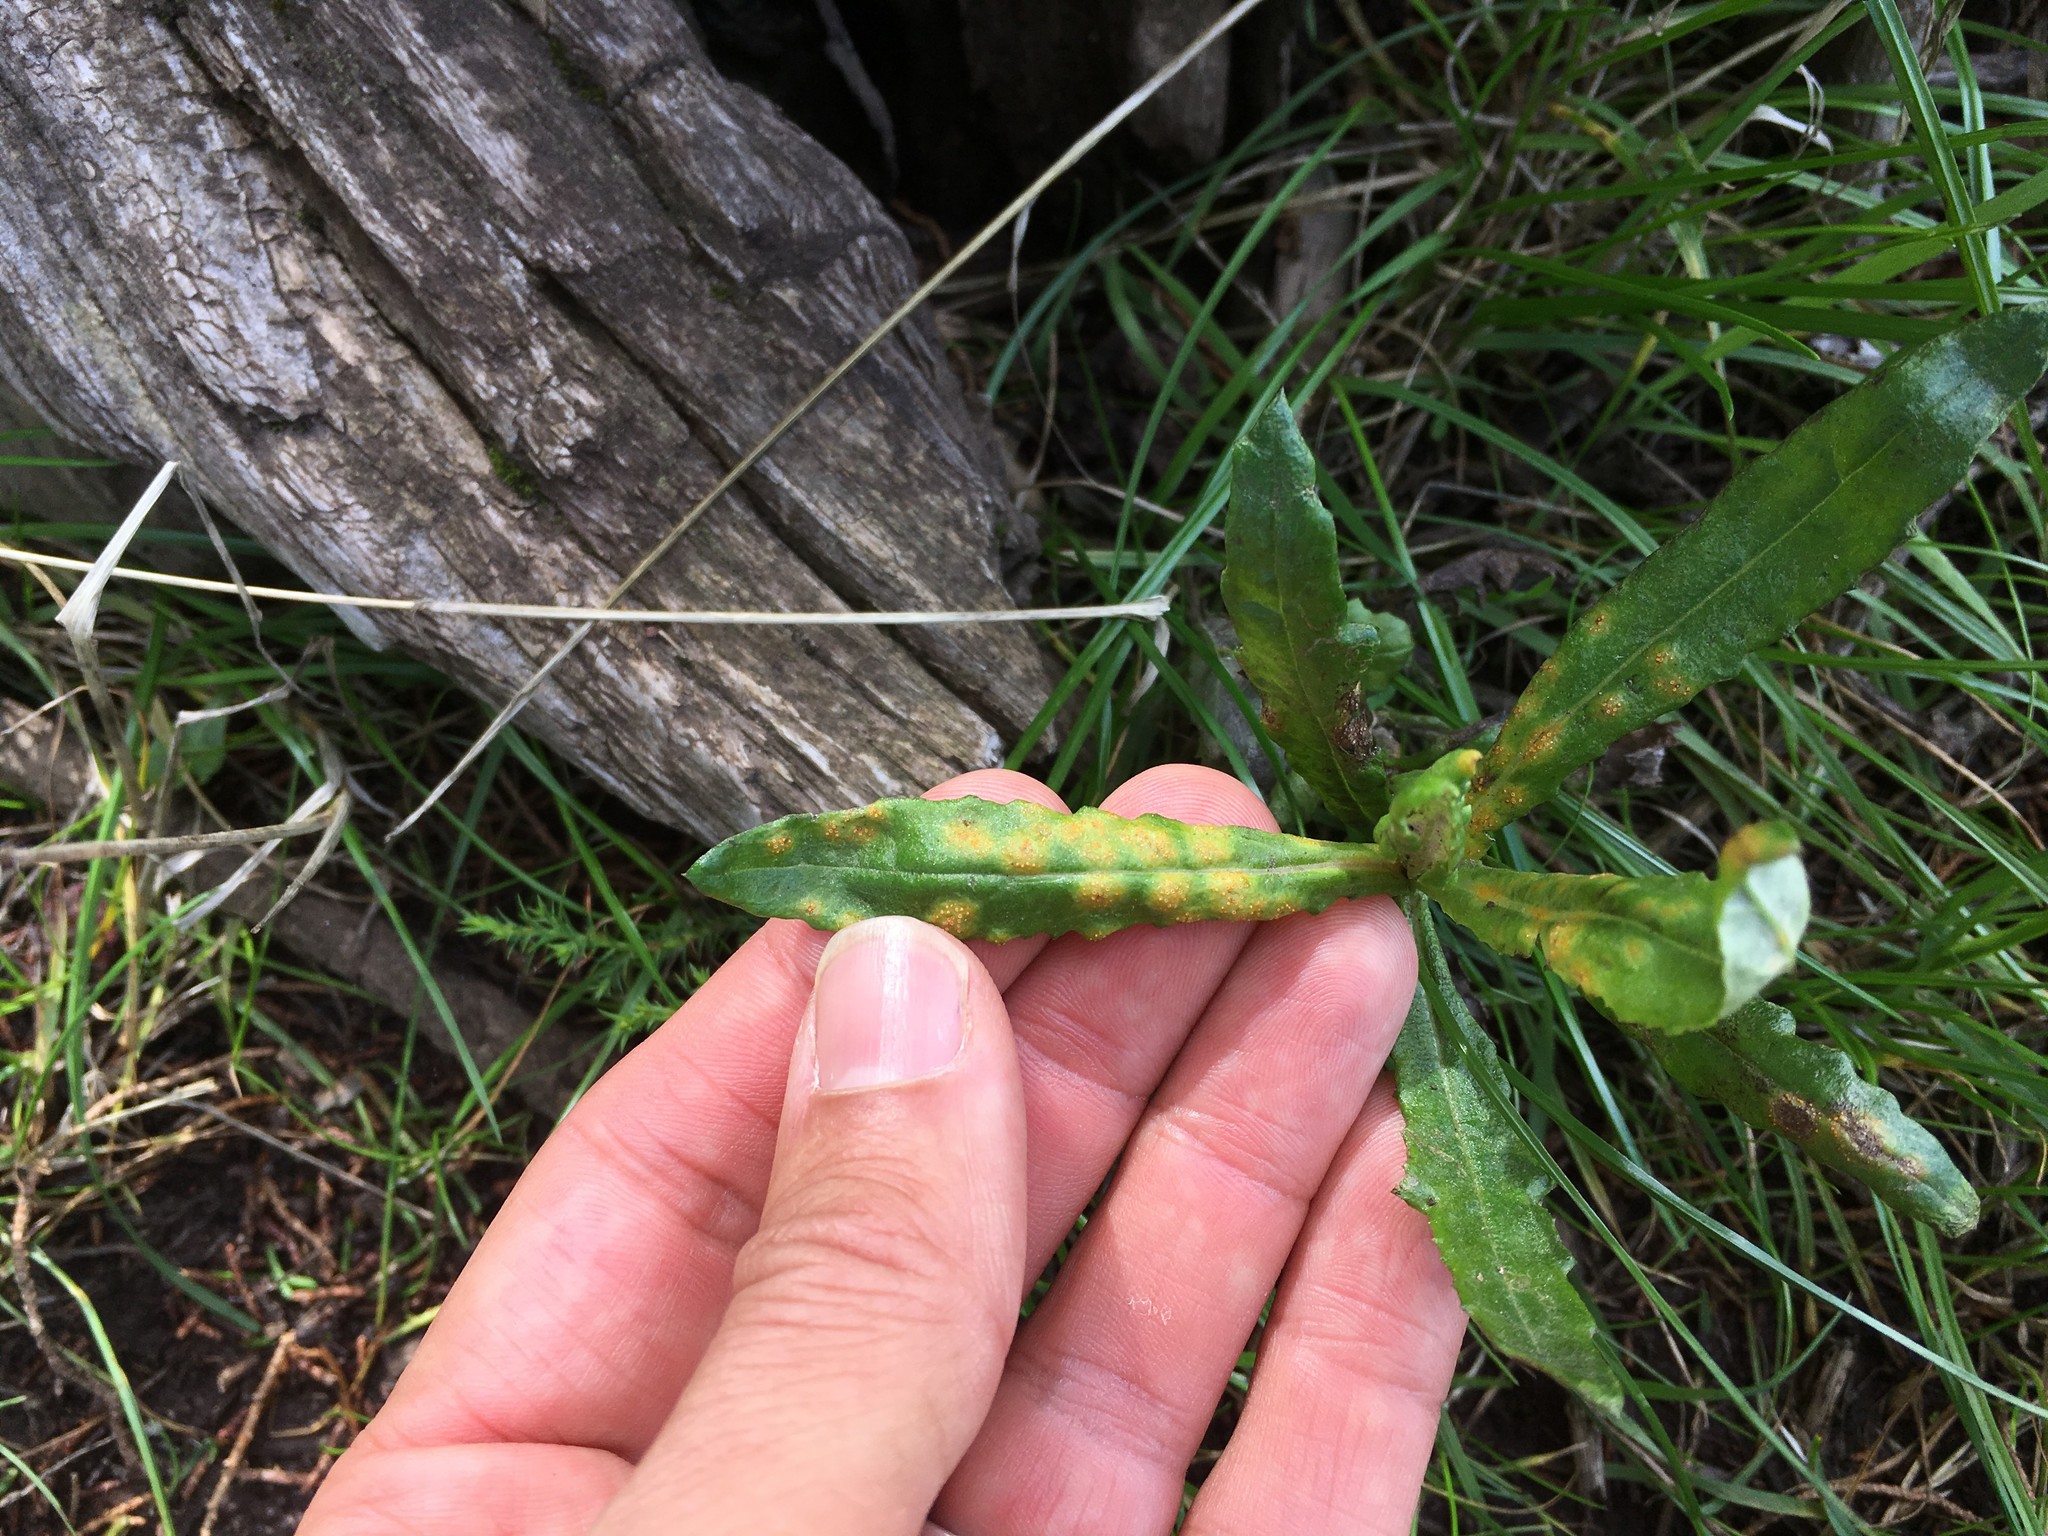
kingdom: Fungi
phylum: Basidiomycota
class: Pucciniomycetes
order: Pucciniales
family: Pucciniaceae
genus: Puccinia
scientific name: Puccinia lagenophorae
